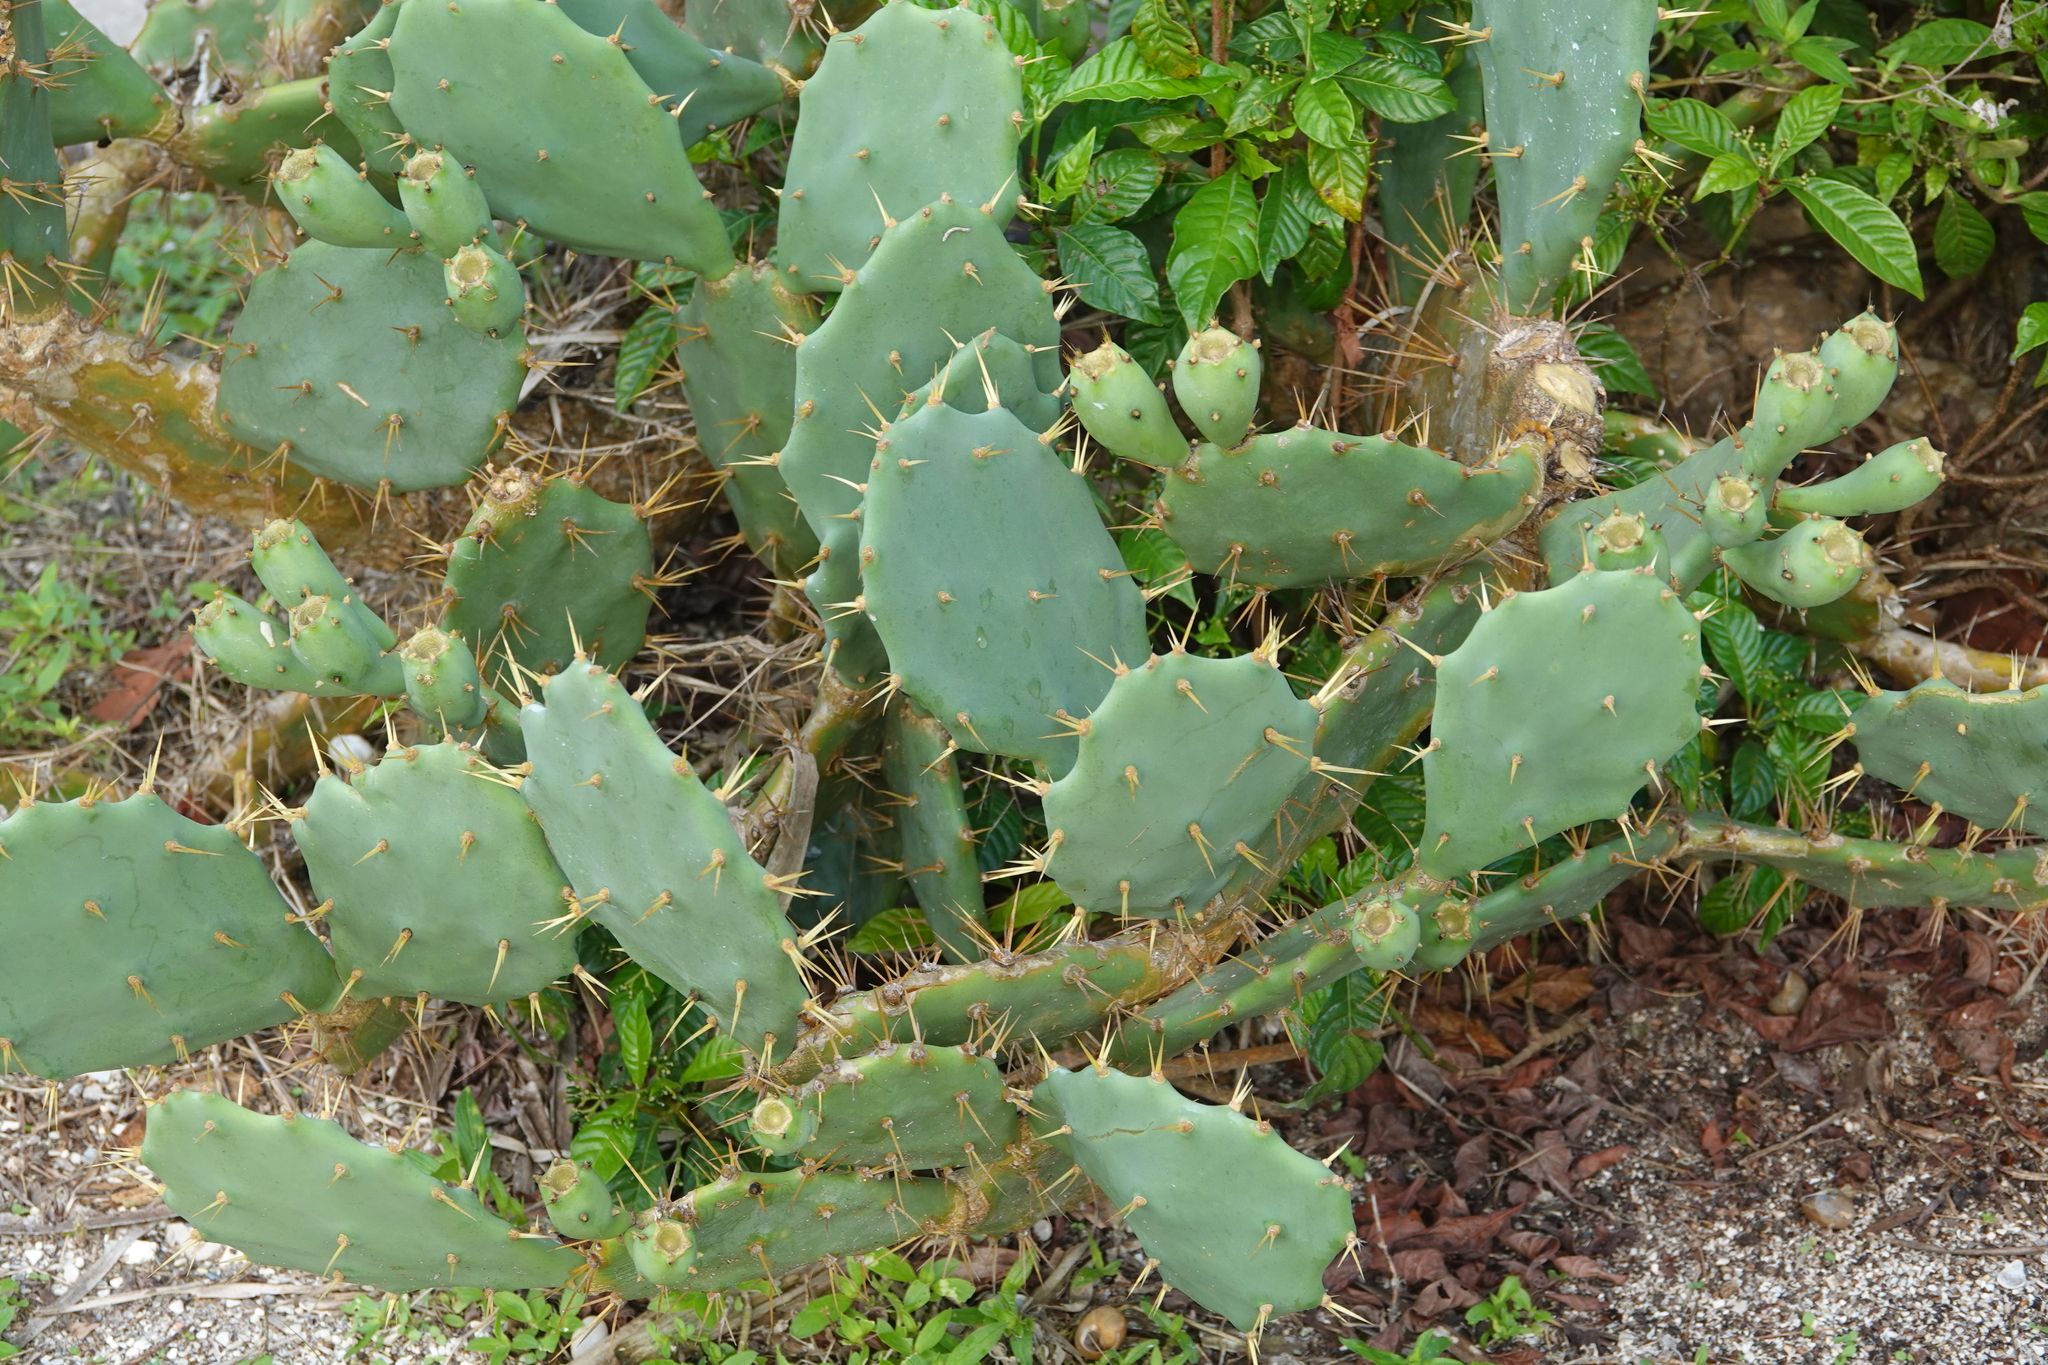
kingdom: Plantae
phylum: Tracheophyta
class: Magnoliopsida
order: Caryophyllales
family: Cactaceae
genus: Opuntia
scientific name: Opuntia stricta
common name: Erect pricklypear
